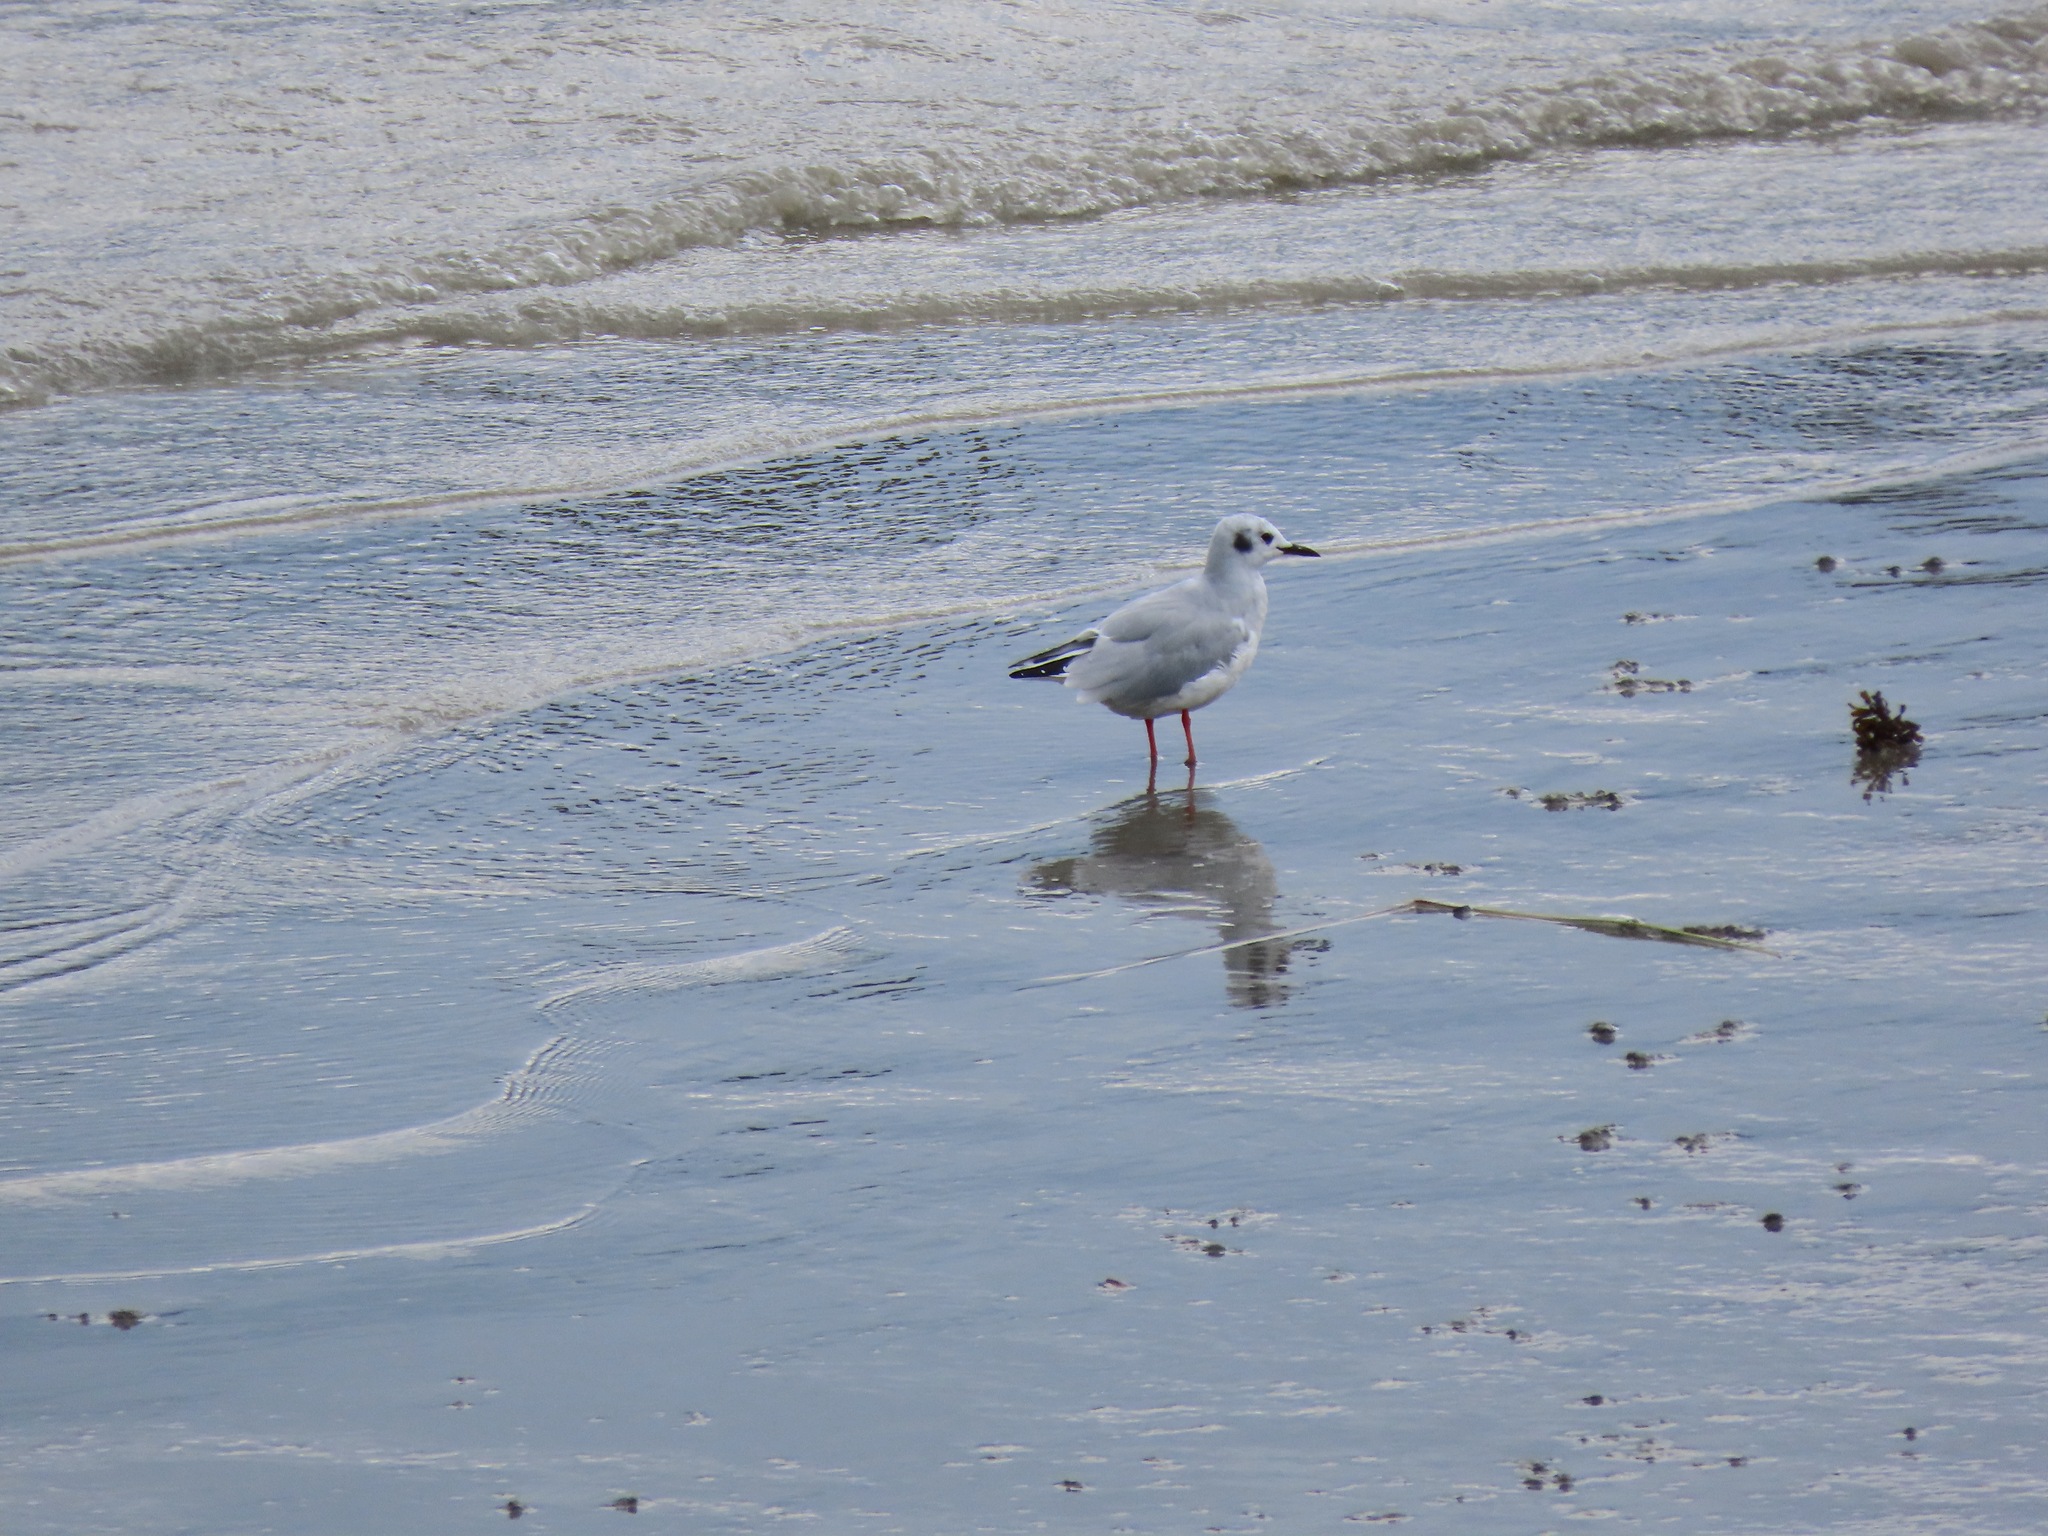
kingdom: Animalia
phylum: Chordata
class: Aves
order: Charadriiformes
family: Laridae
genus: Chroicocephalus
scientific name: Chroicocephalus philadelphia
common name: Bonaparte's gull
